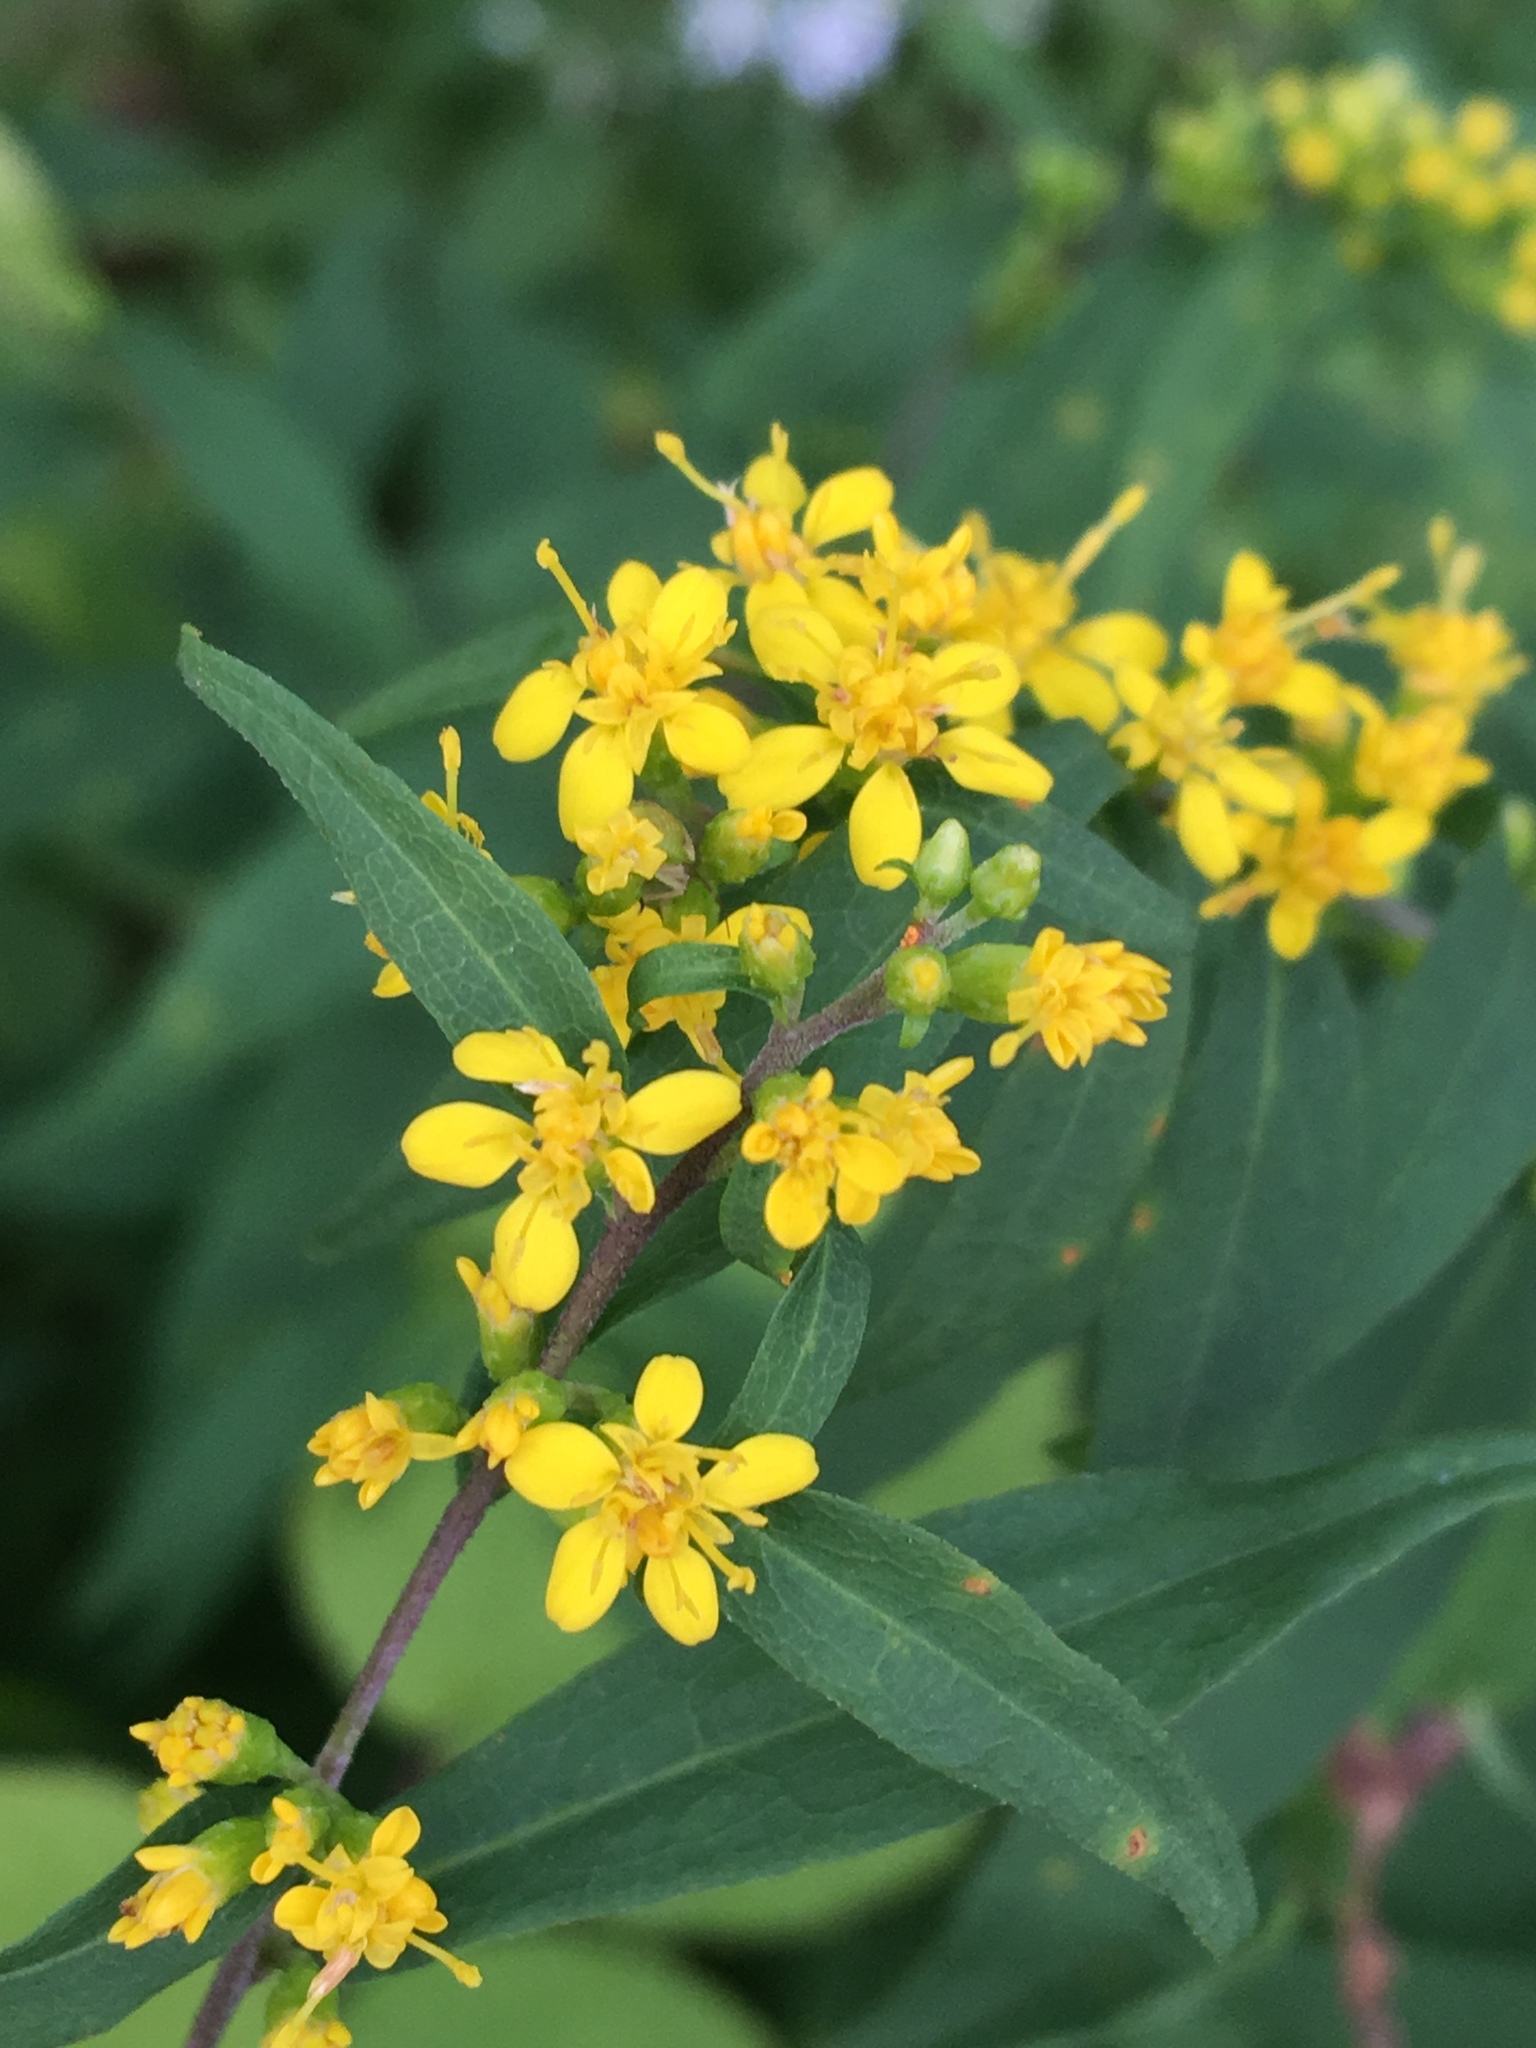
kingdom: Plantae
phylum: Tracheophyta
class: Magnoliopsida
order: Asterales
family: Asteraceae
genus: Solidago
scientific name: Solidago caesia
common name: Woodland goldenrod
